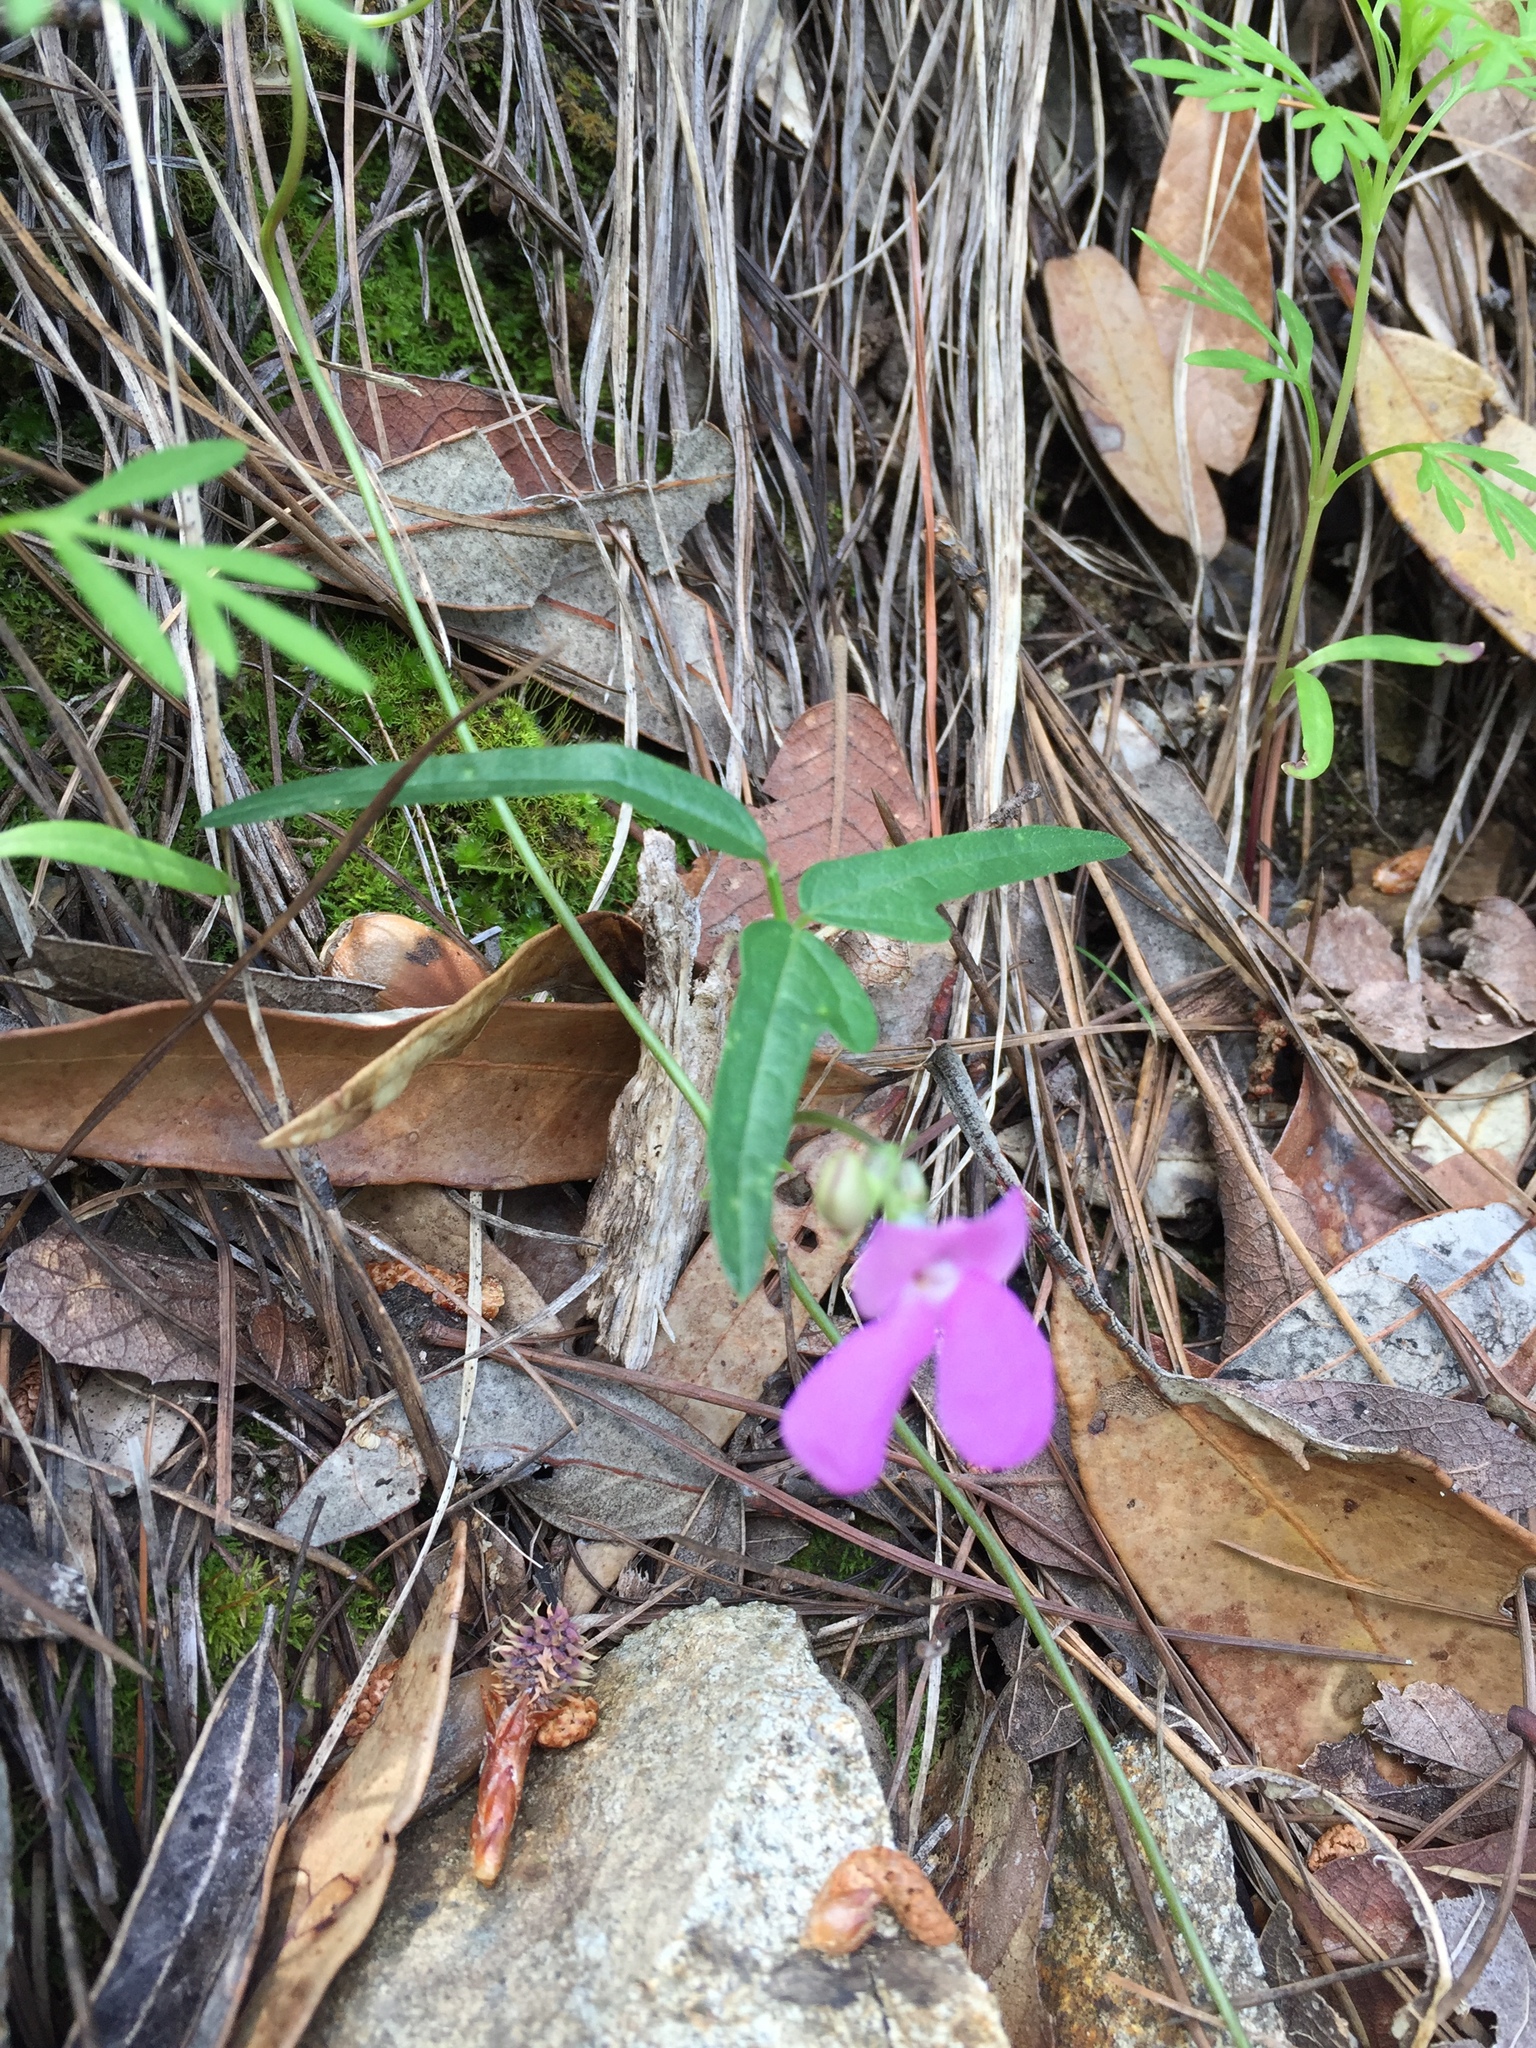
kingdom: Plantae
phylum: Tracheophyta
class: Magnoliopsida
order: Fabales
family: Fabaceae
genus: Phaseolus
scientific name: Phaseolus parvulus
